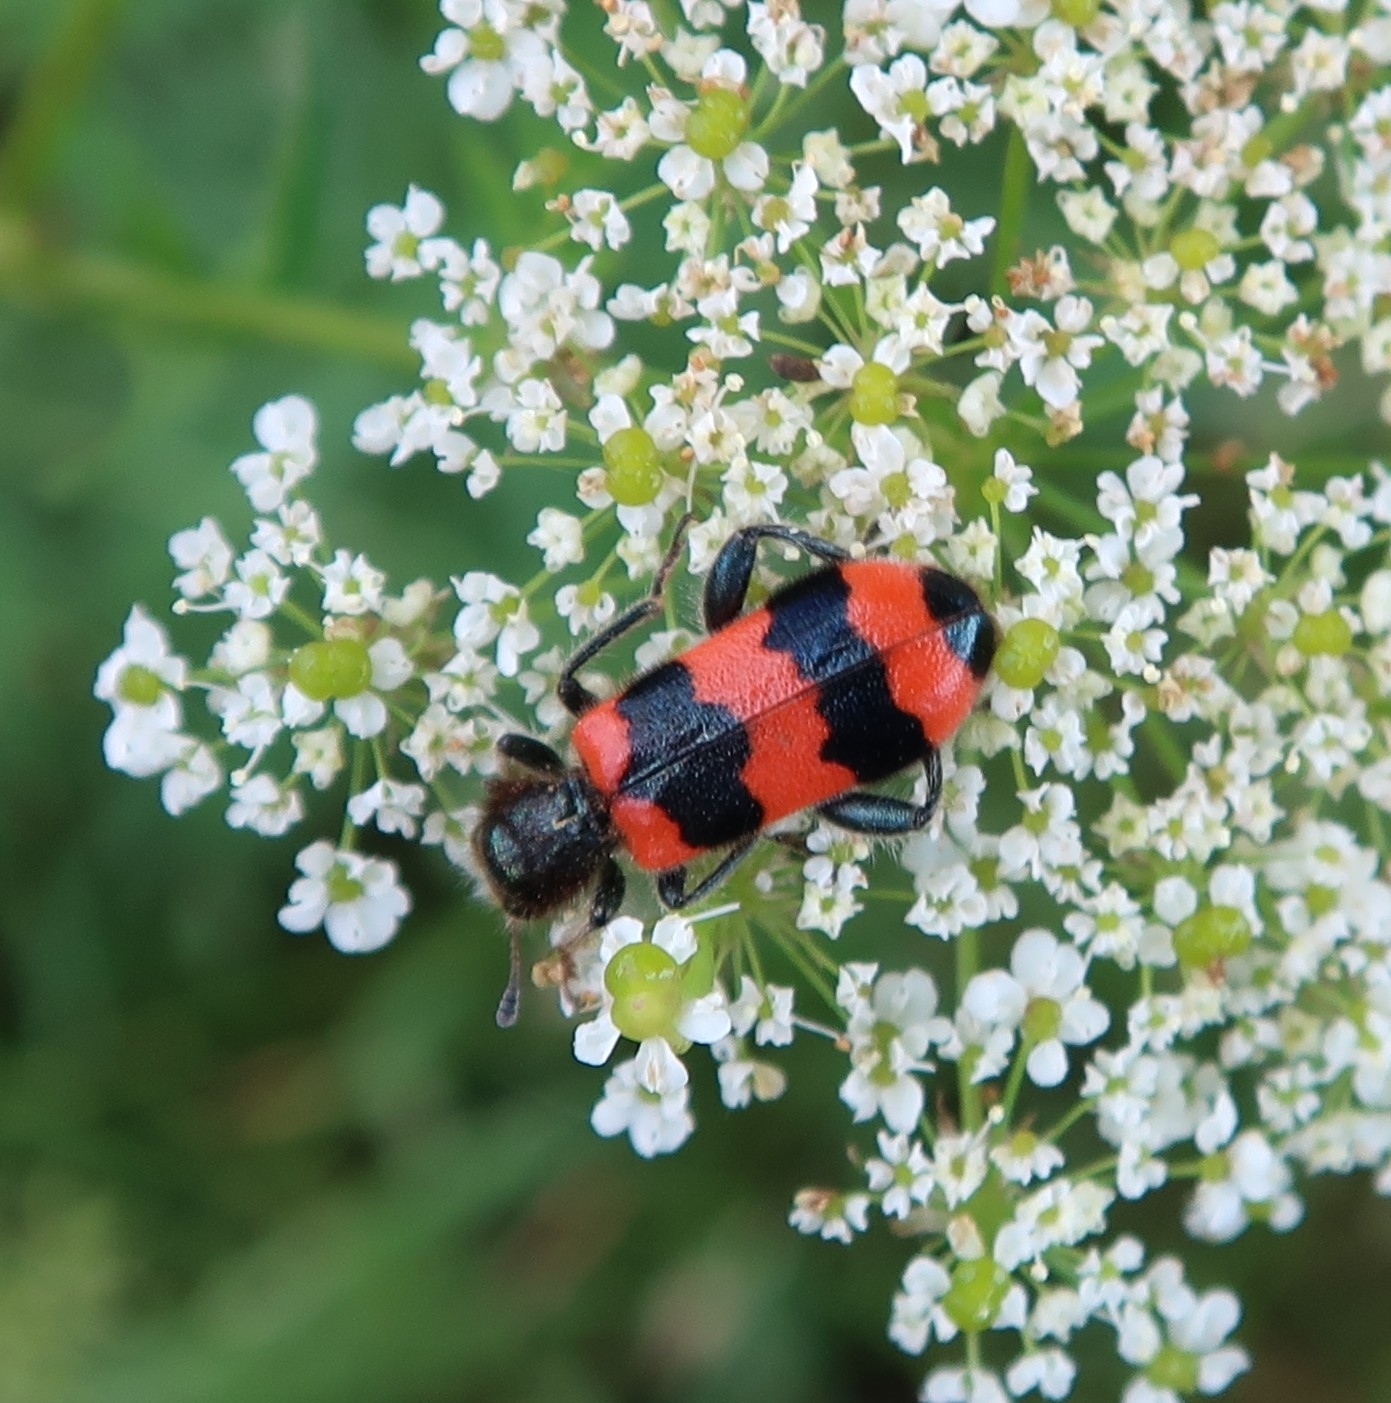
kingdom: Animalia
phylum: Arthropoda
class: Insecta
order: Coleoptera
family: Cleridae
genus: Trichodes
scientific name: Trichodes apiarius
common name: Bee-eating beetle
